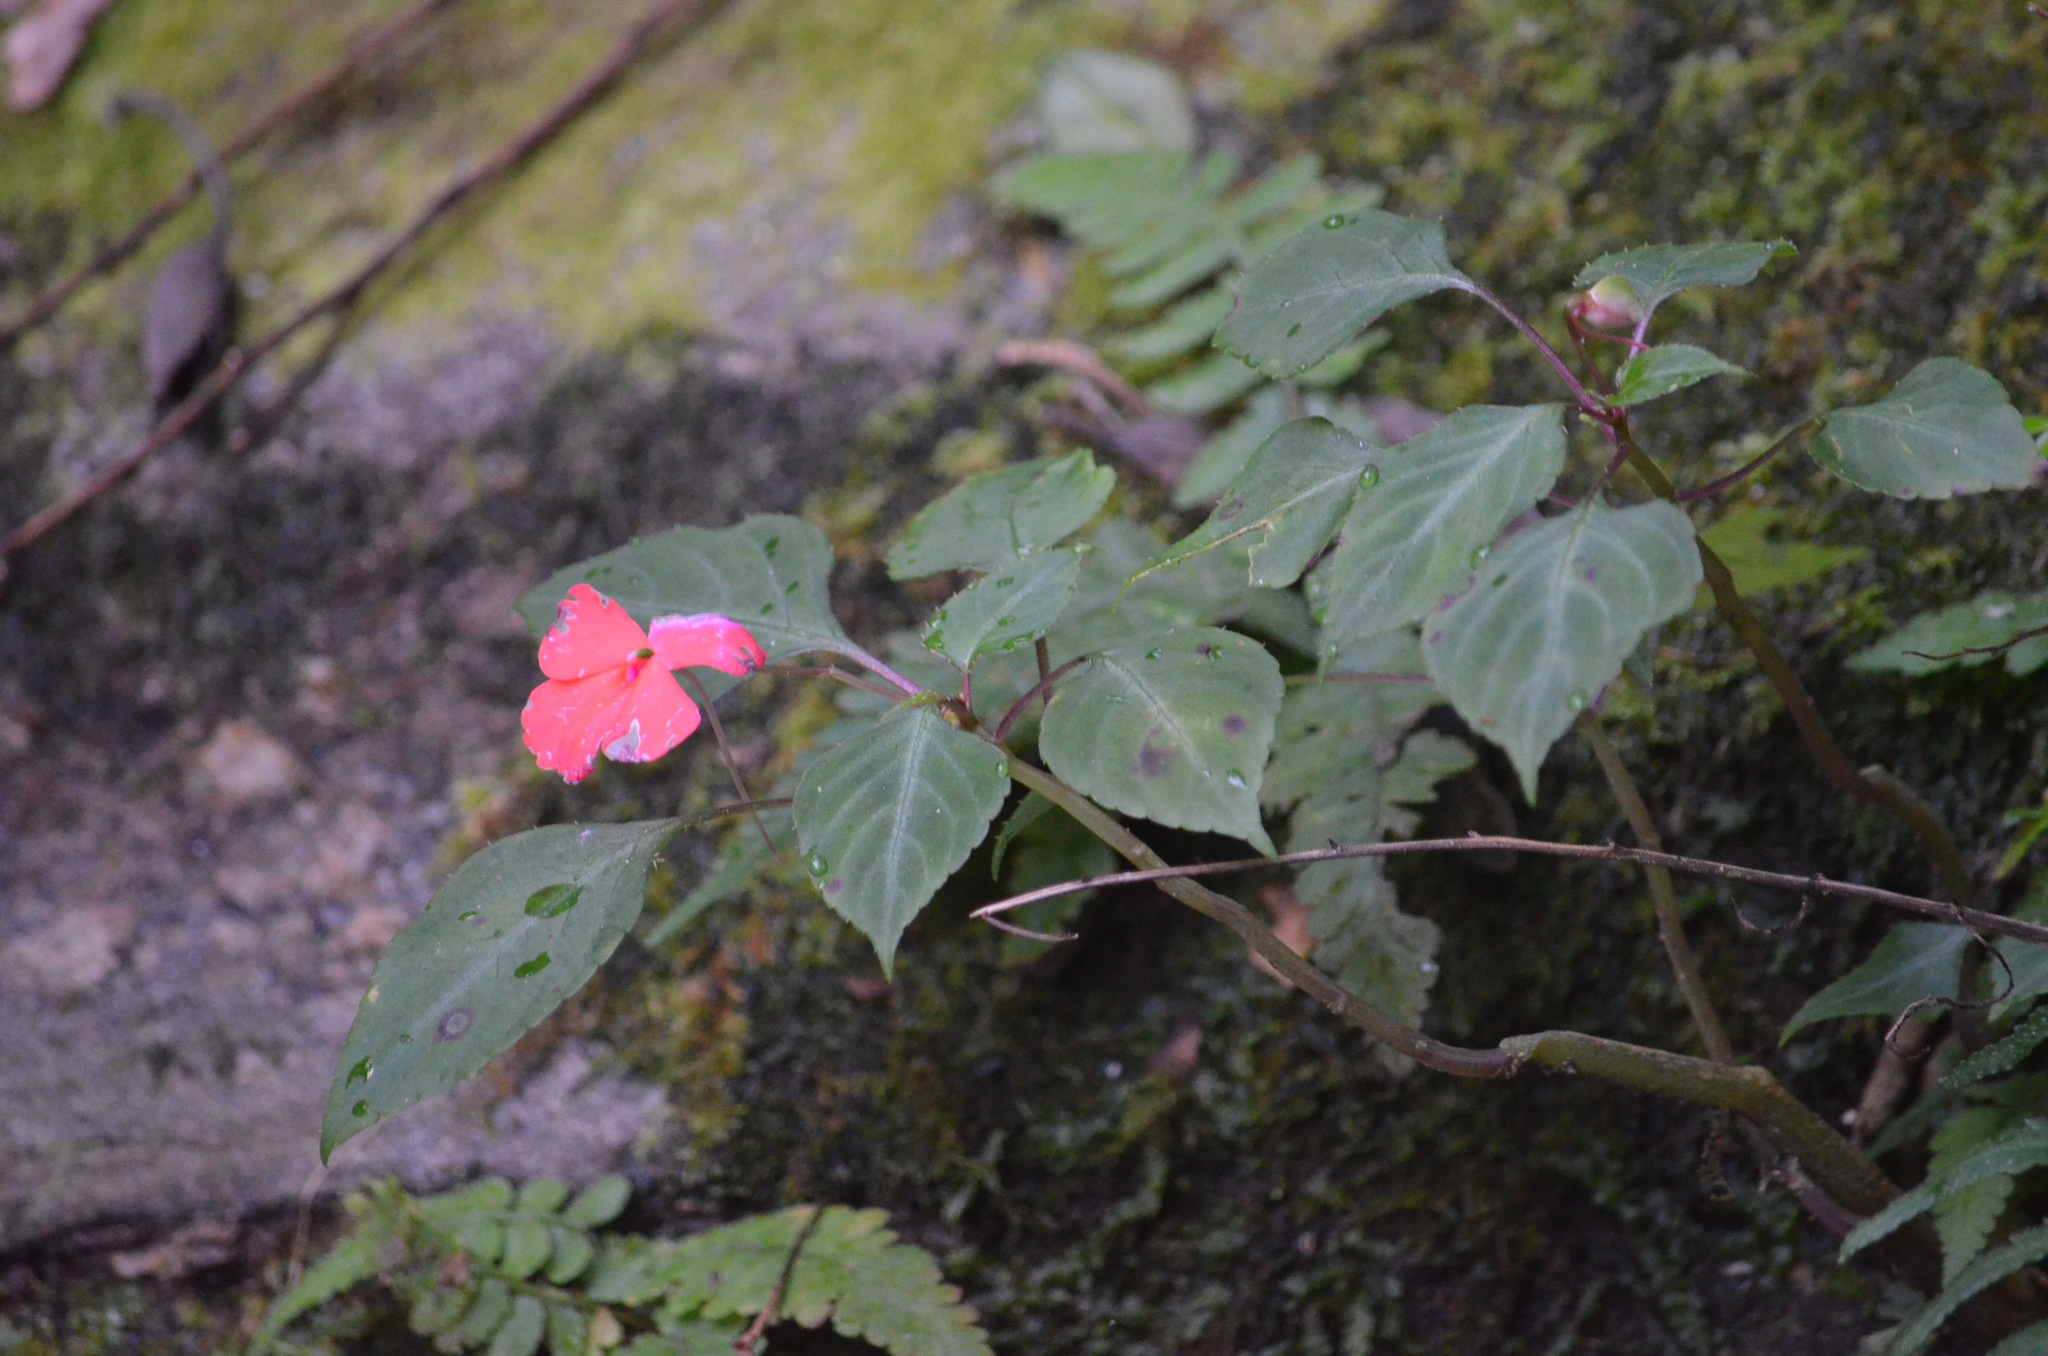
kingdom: Plantae
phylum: Tracheophyta
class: Magnoliopsida
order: Ericales
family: Balsaminaceae
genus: Impatiens
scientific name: Impatiens walleriana
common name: Buzzy lizzy
